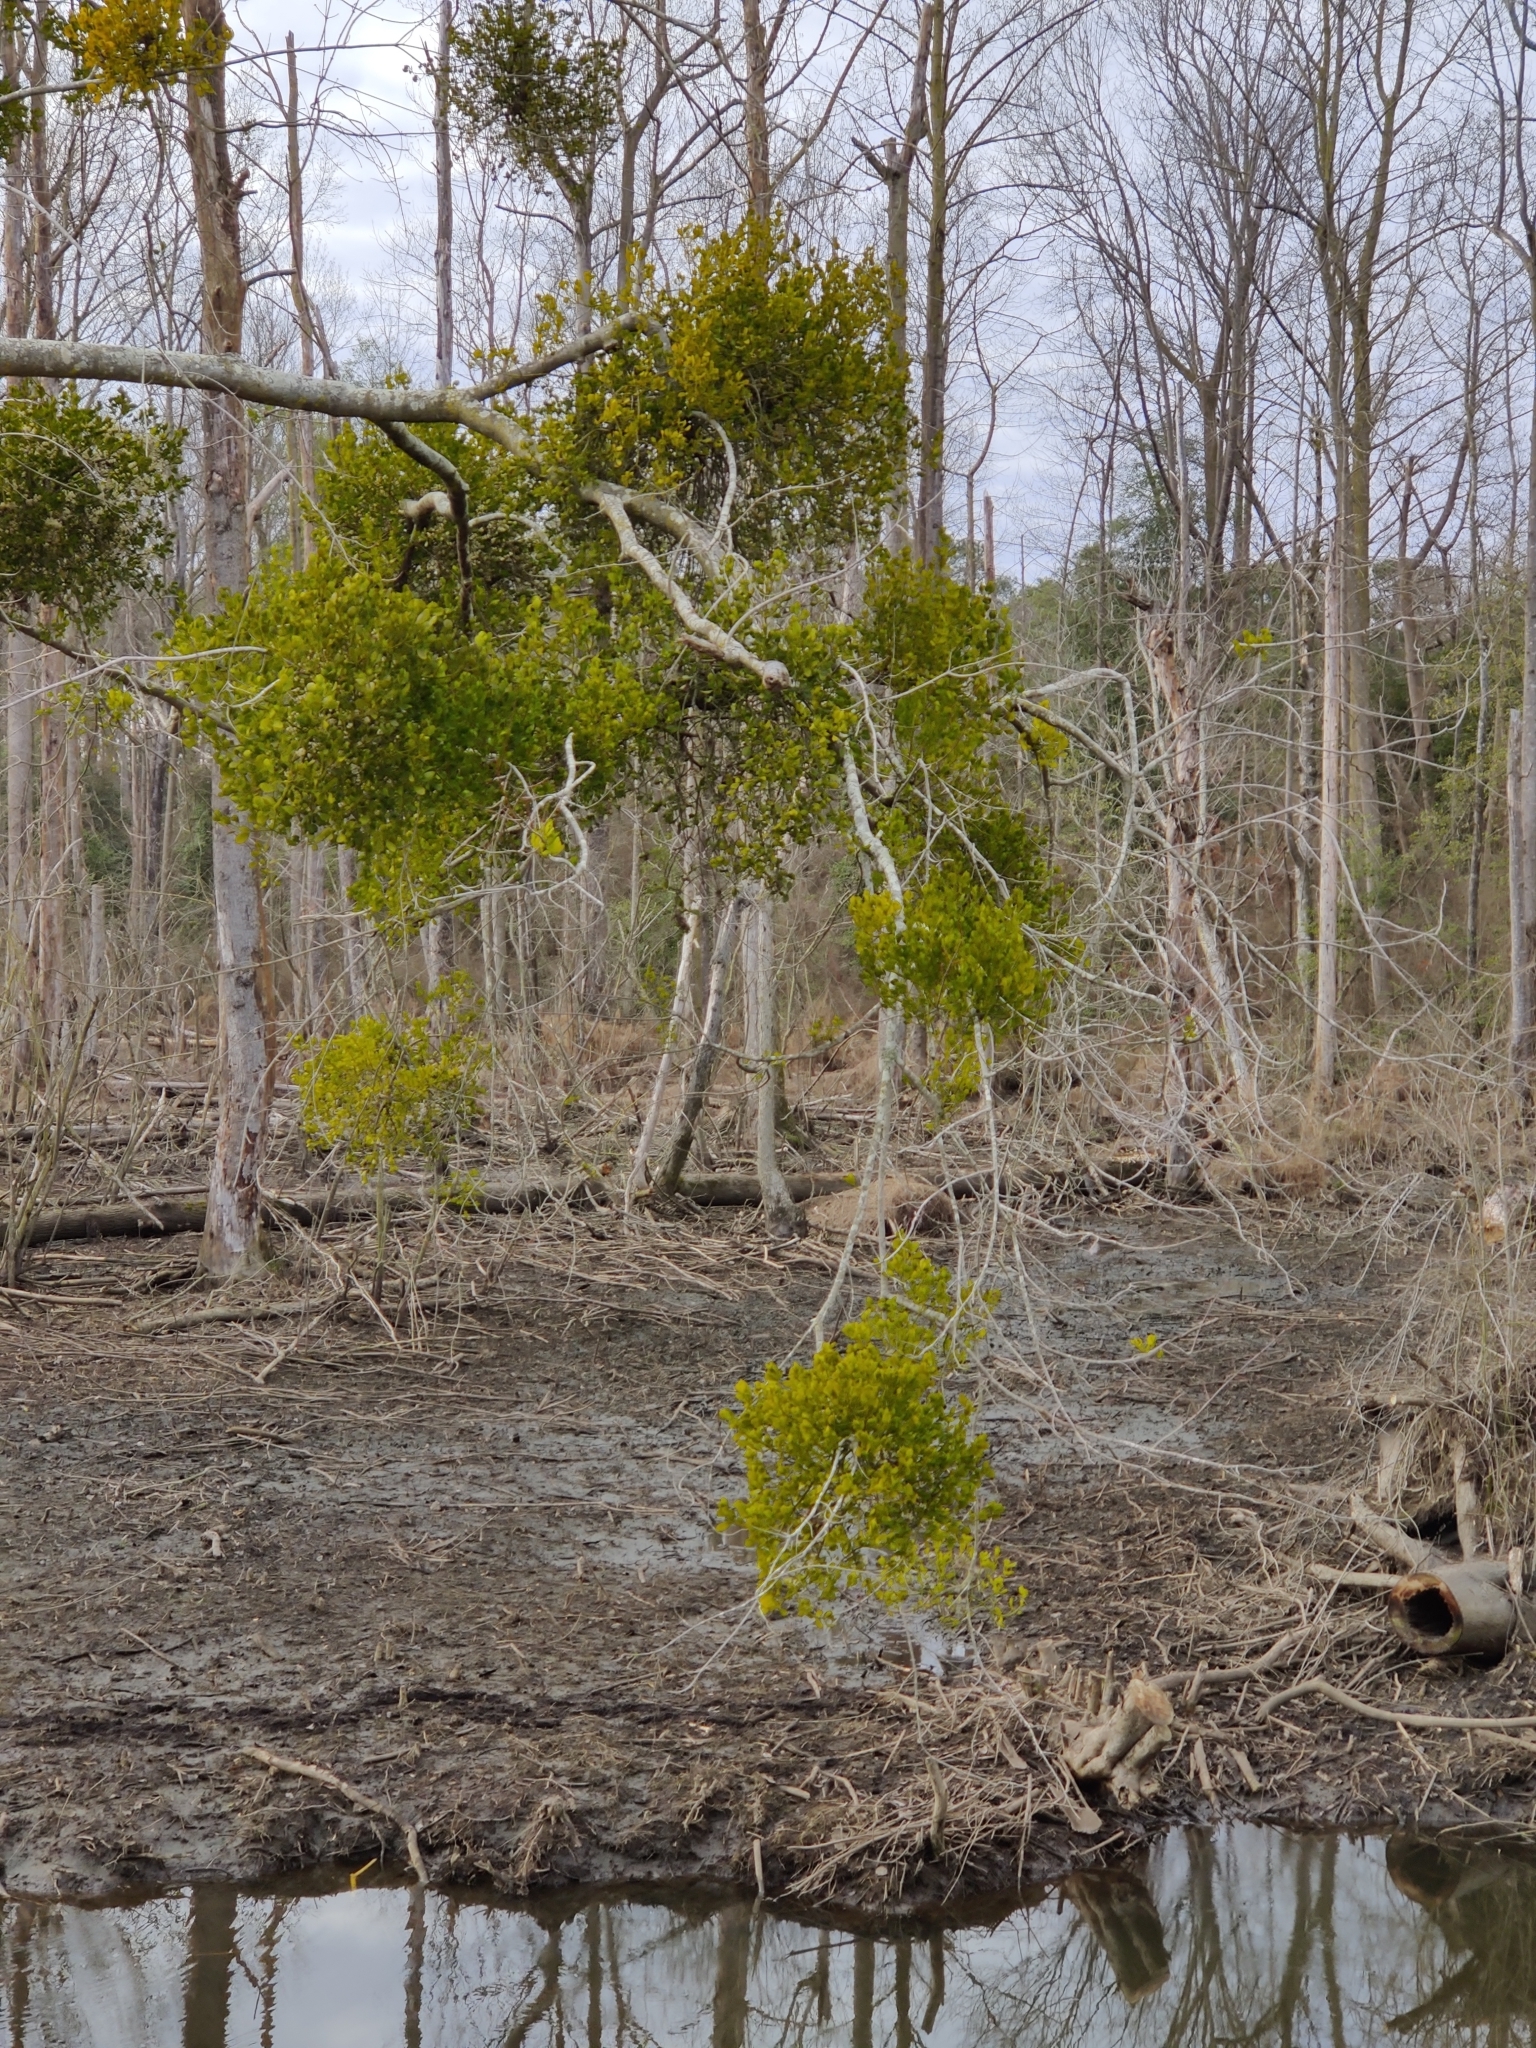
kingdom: Plantae
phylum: Tracheophyta
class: Magnoliopsida
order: Santalales
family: Viscaceae
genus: Phoradendron
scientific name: Phoradendron leucarpum
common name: Pacific mistletoe
